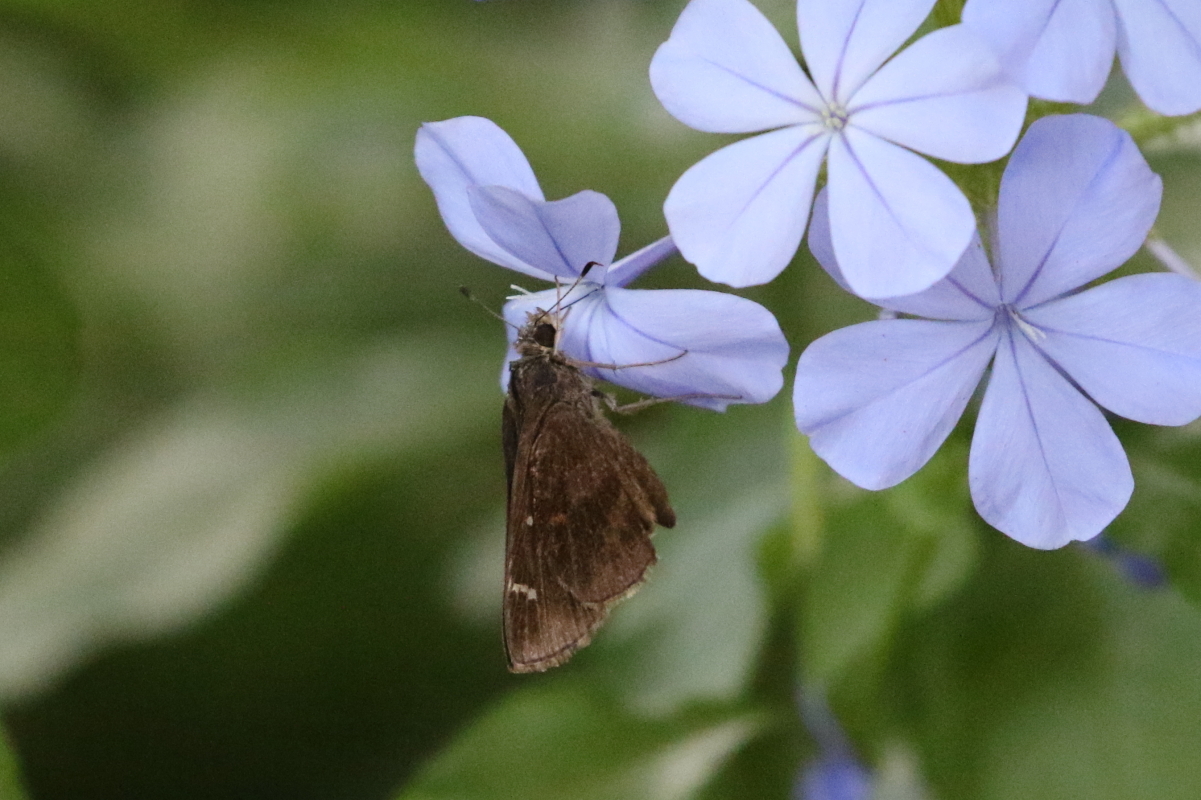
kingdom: Animalia
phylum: Arthropoda
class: Insecta
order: Lepidoptera
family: Hesperiidae
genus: Lerema
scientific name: Lerema accius
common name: Clouded skipper
